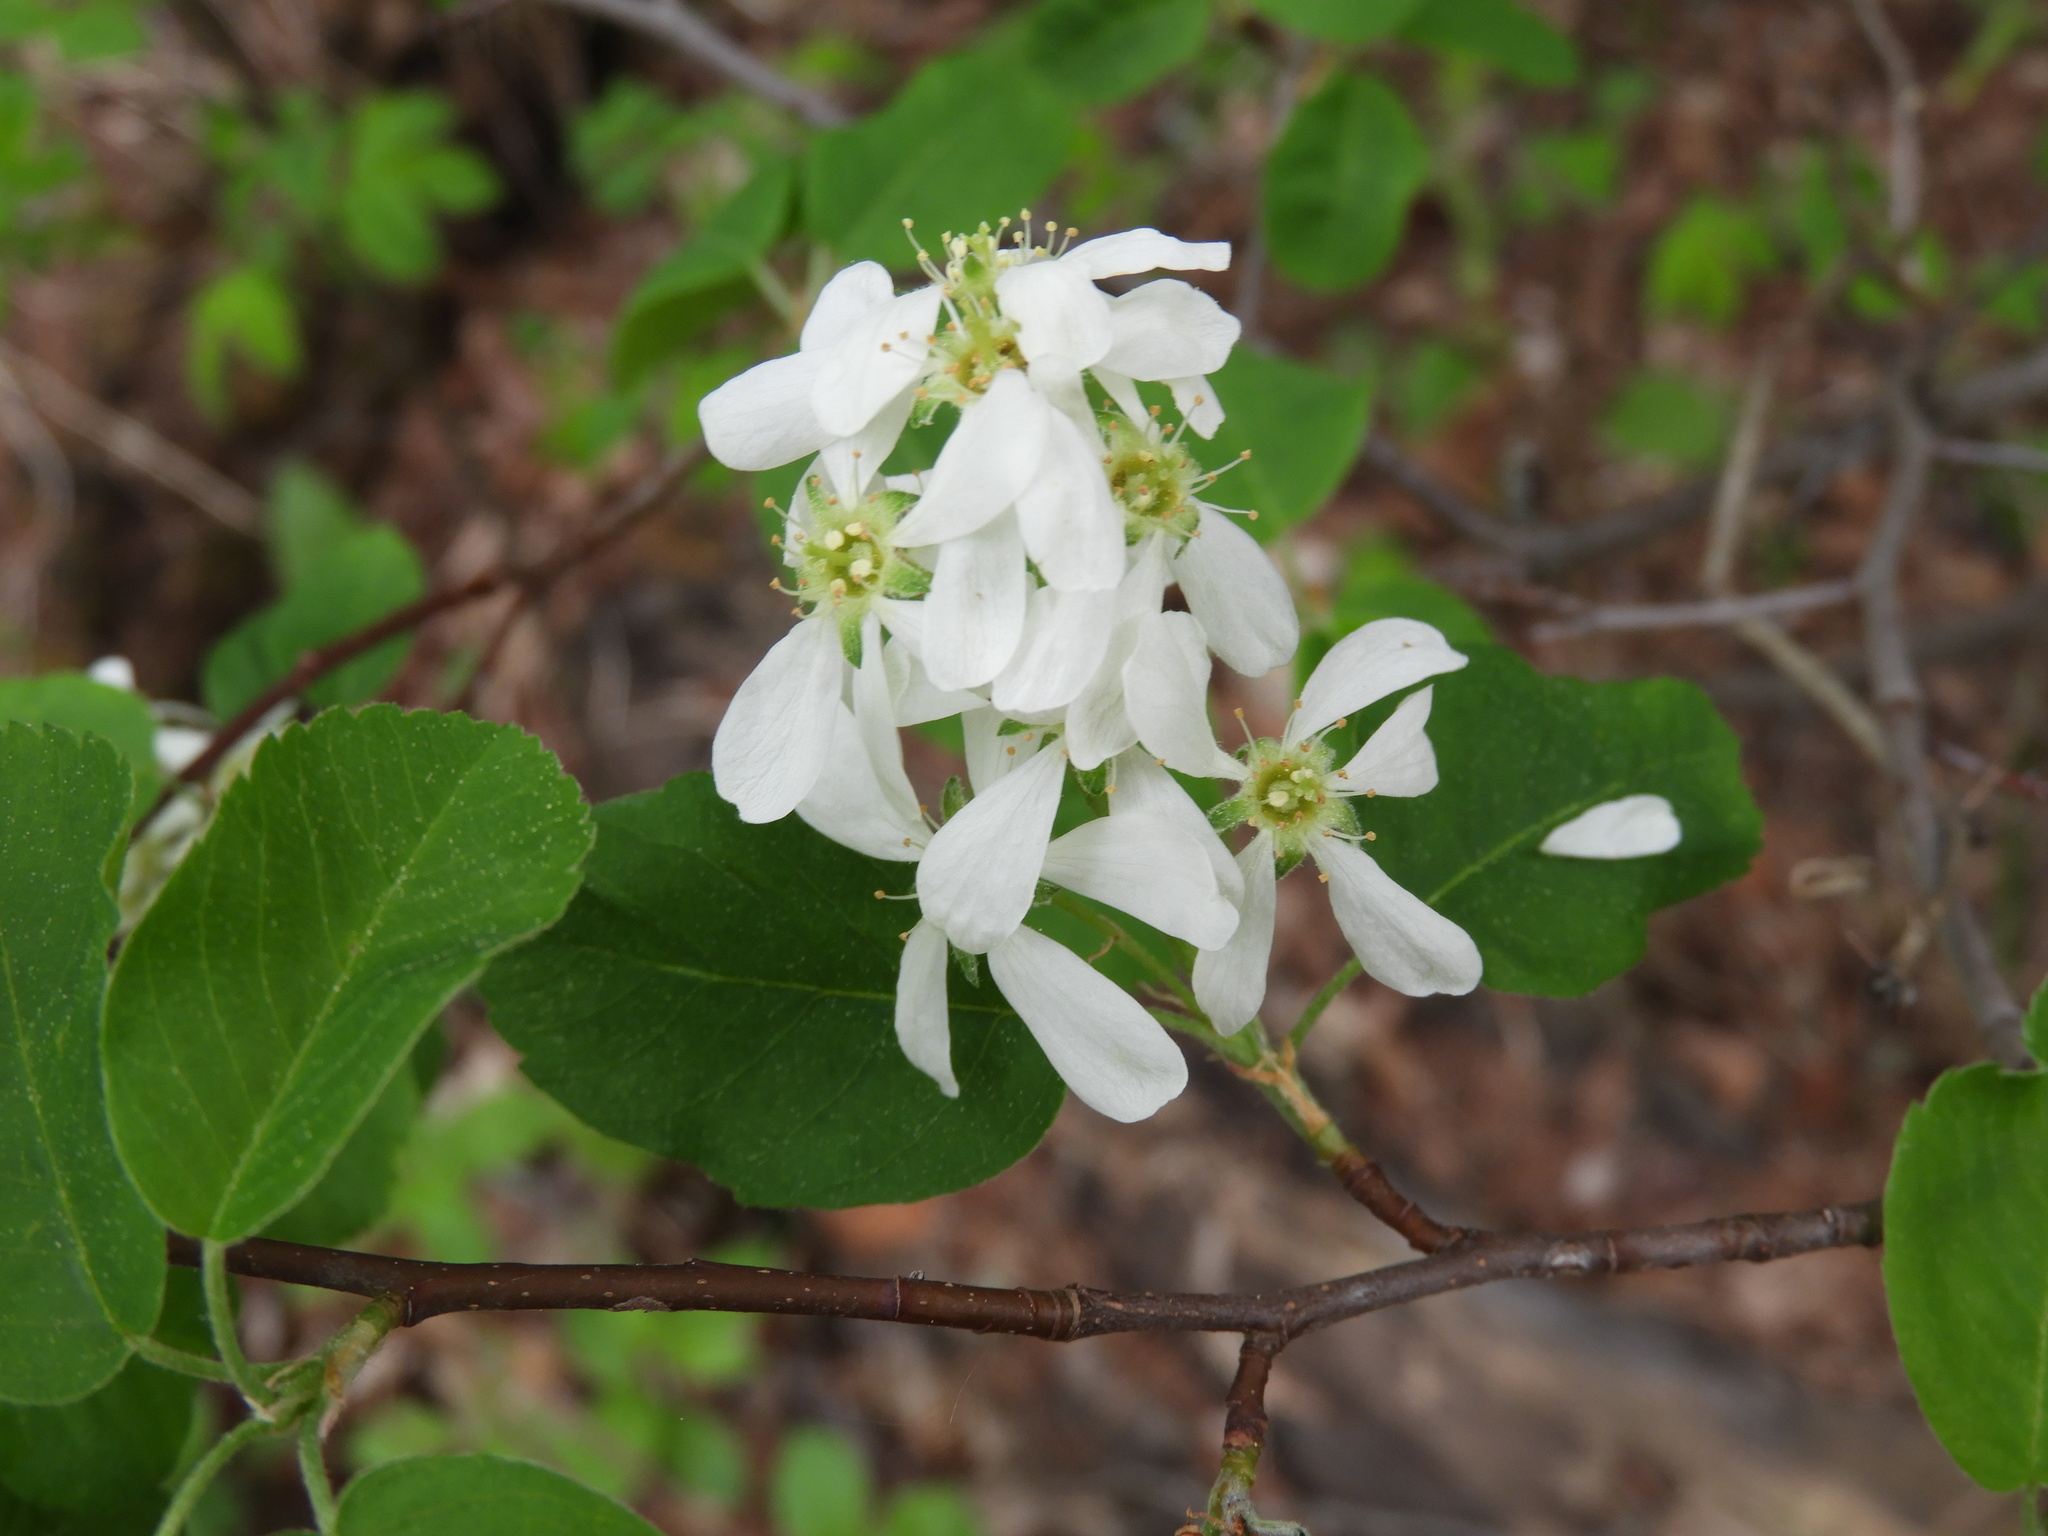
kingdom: Plantae
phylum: Tracheophyta
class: Magnoliopsida
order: Rosales
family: Rosaceae
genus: Amelanchier
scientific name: Amelanchier alnifolia
